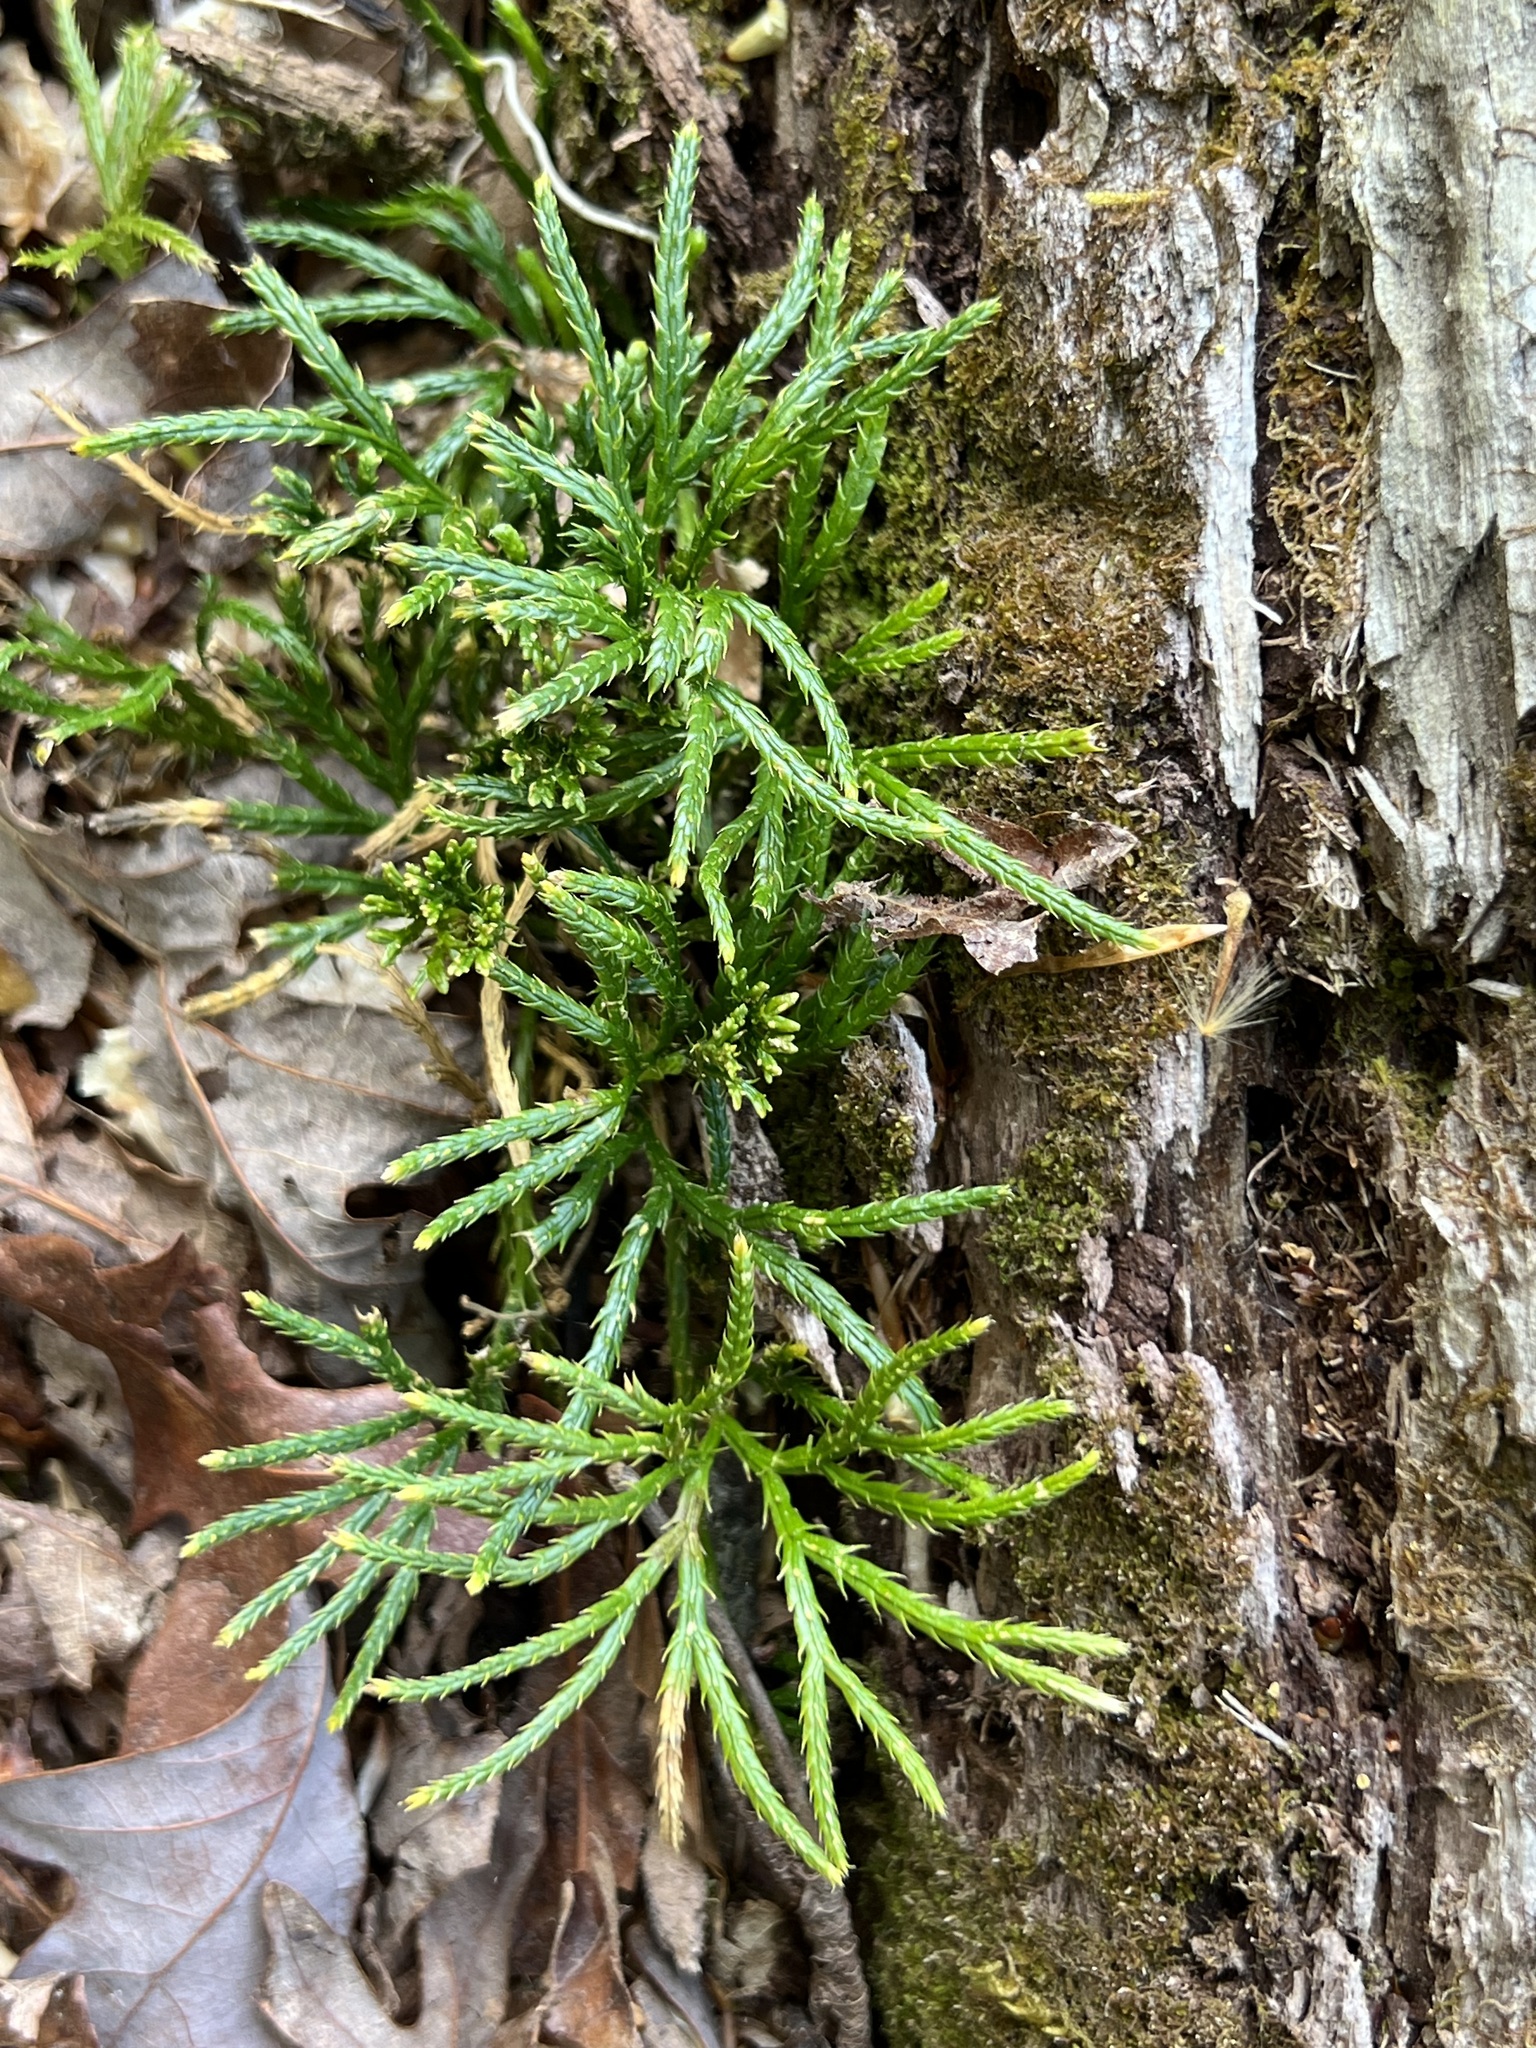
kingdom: Plantae
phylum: Tracheophyta
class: Lycopodiopsida
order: Lycopodiales
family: Lycopodiaceae
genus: Diphasiastrum
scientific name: Diphasiastrum digitatum
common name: Southern running-pine
